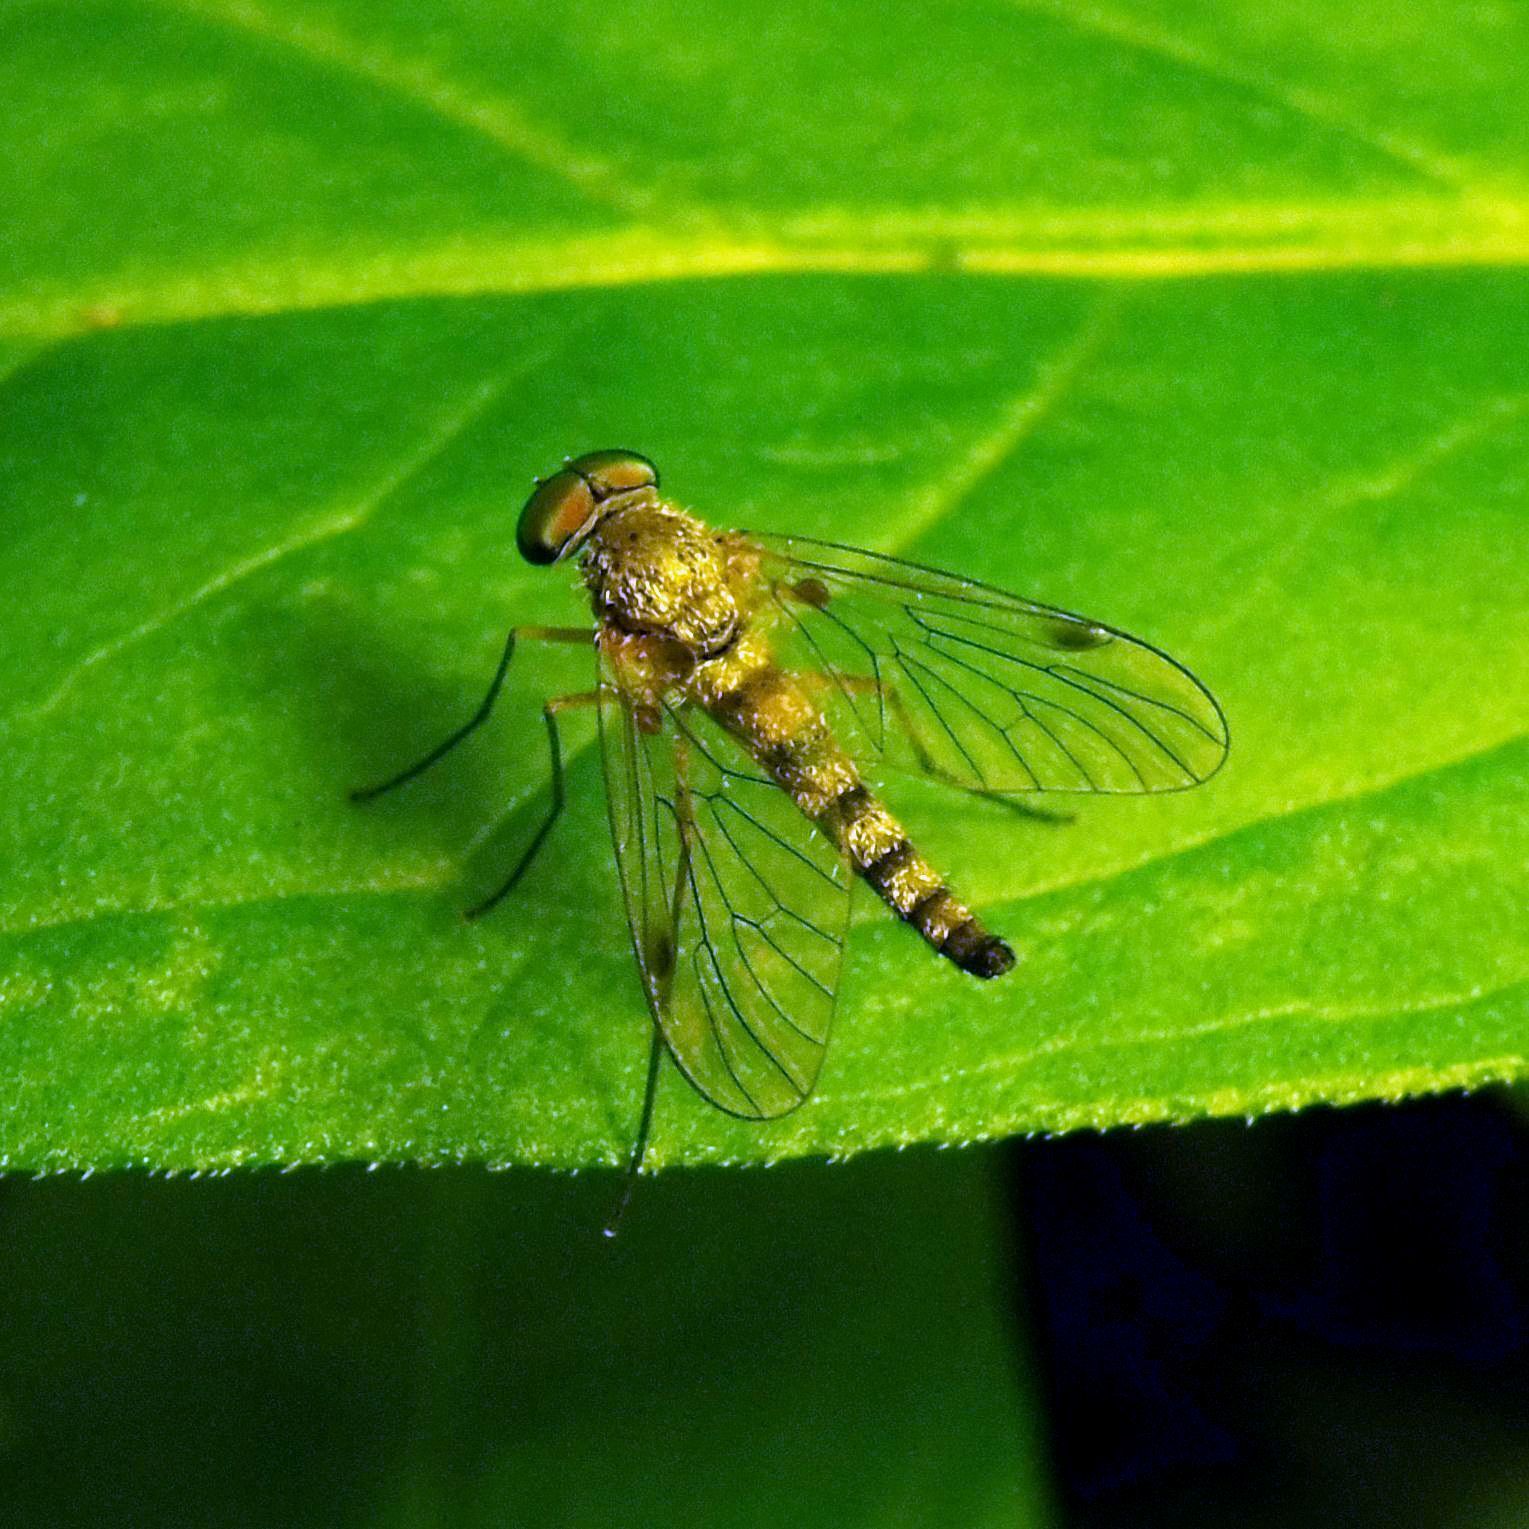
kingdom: Animalia
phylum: Arthropoda
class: Insecta
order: Diptera
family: Rhagionidae
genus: Chrysopilus
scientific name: Chrysopilus asiliformis
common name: Little snipefly
